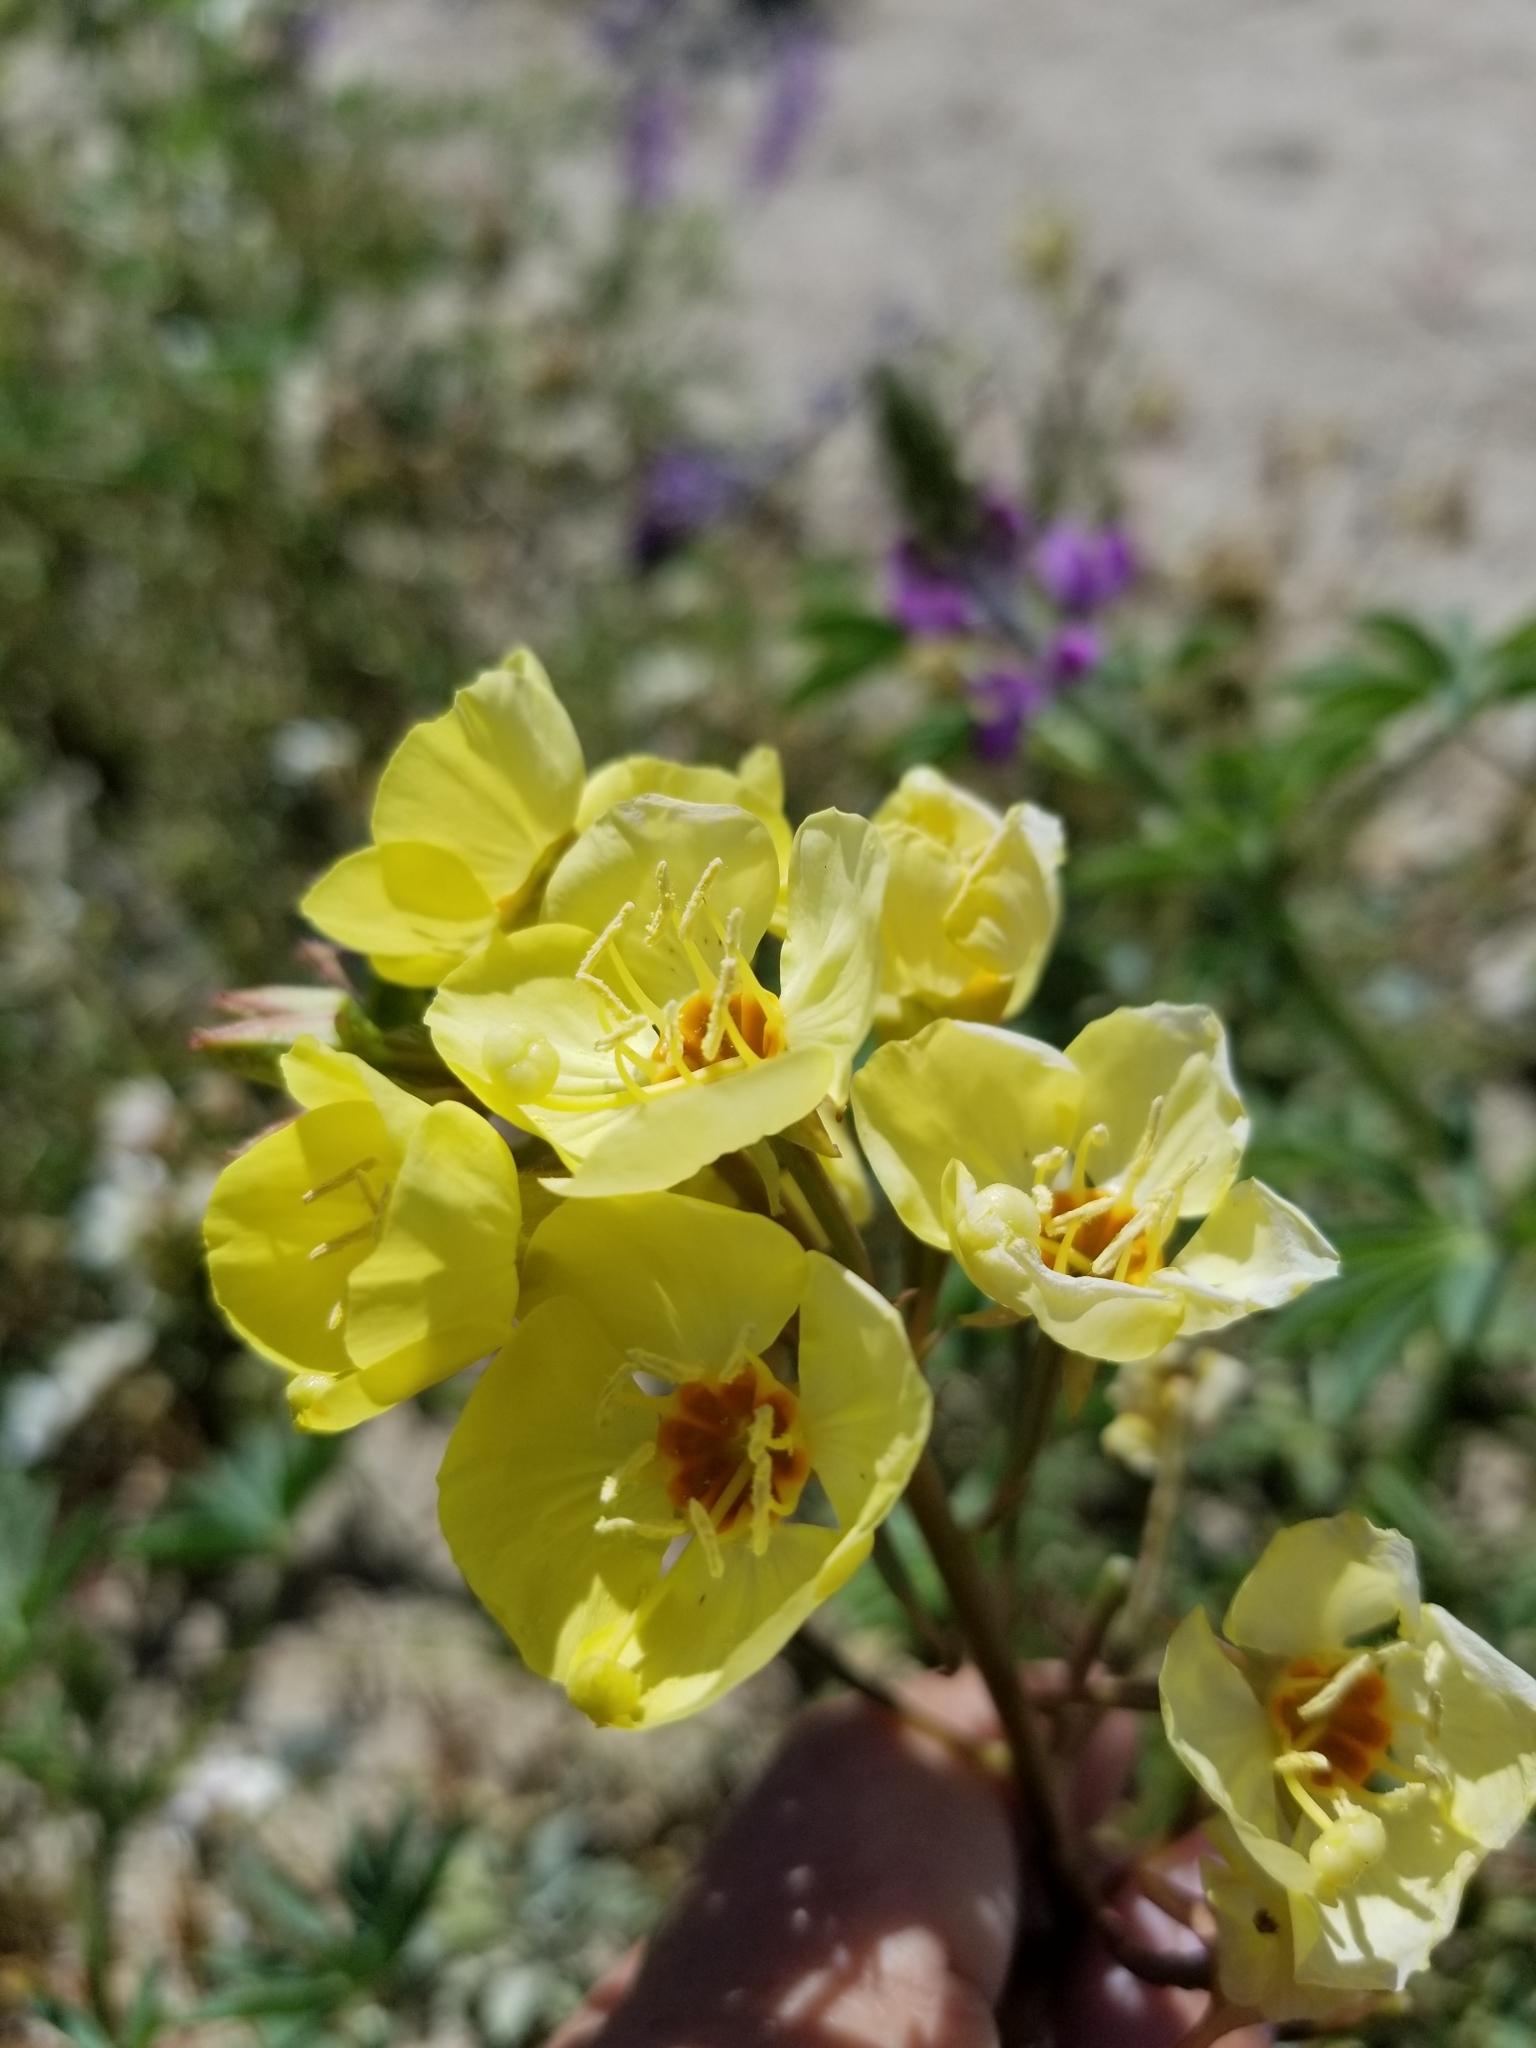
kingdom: Plantae
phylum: Tracheophyta
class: Magnoliopsida
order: Myrtales
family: Onagraceae
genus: Chylismia
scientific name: Chylismia claviformis
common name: Browneyes
